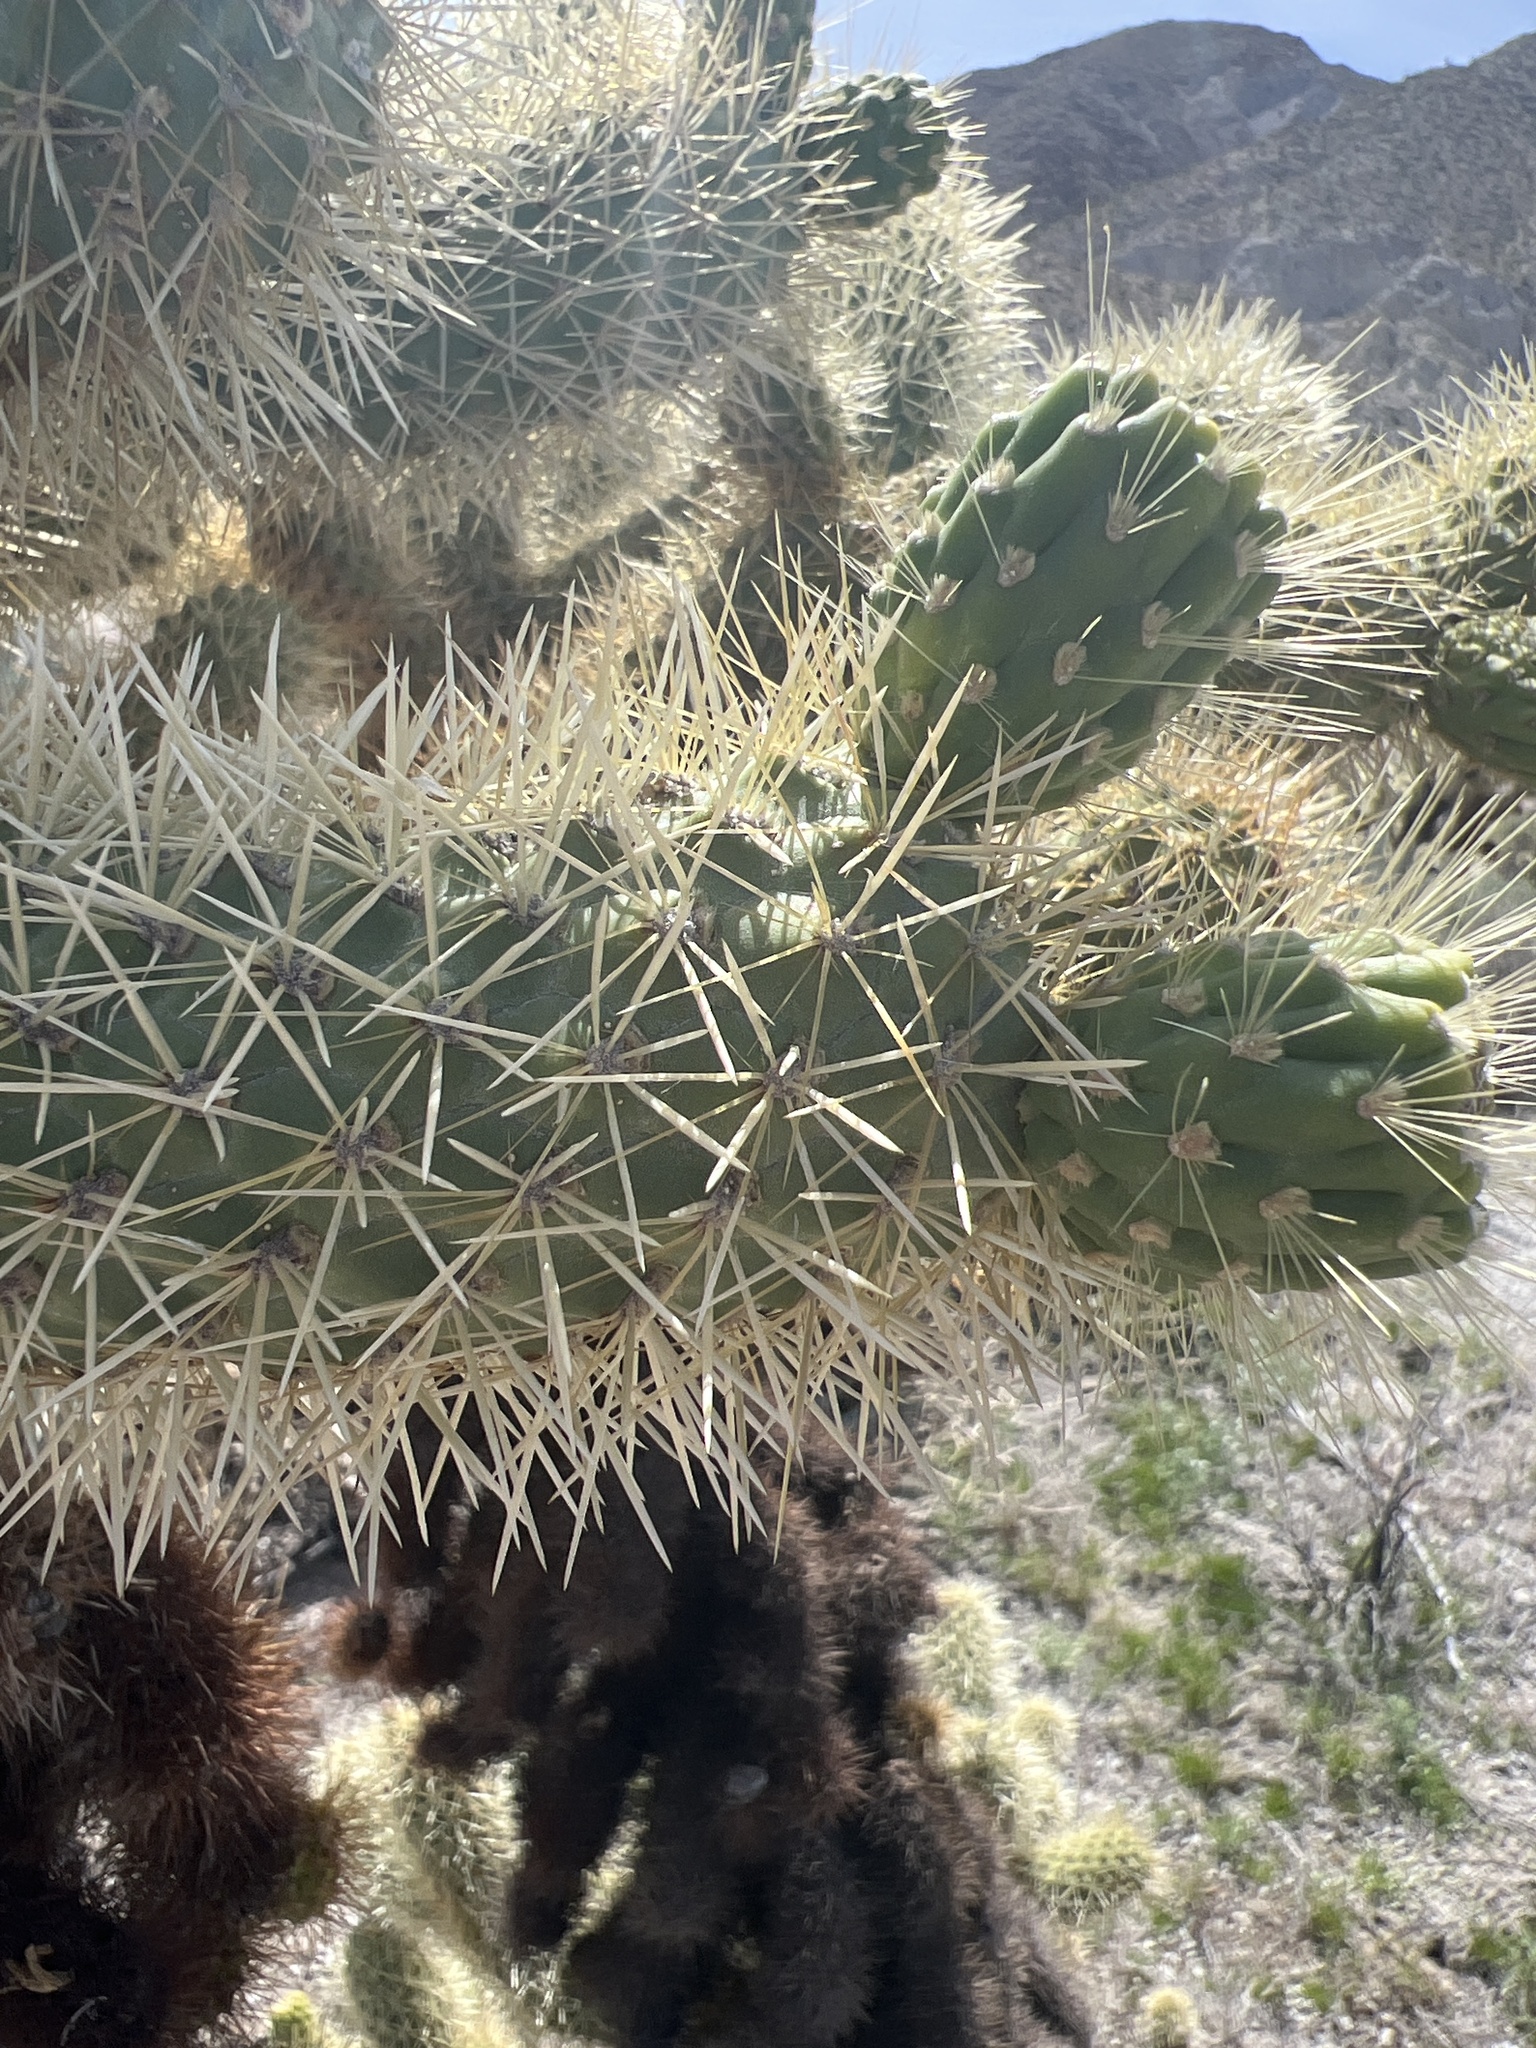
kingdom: Plantae
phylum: Tracheophyta
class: Magnoliopsida
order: Caryophyllales
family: Cactaceae
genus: Cylindropuntia
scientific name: Cylindropuntia fosbergii
